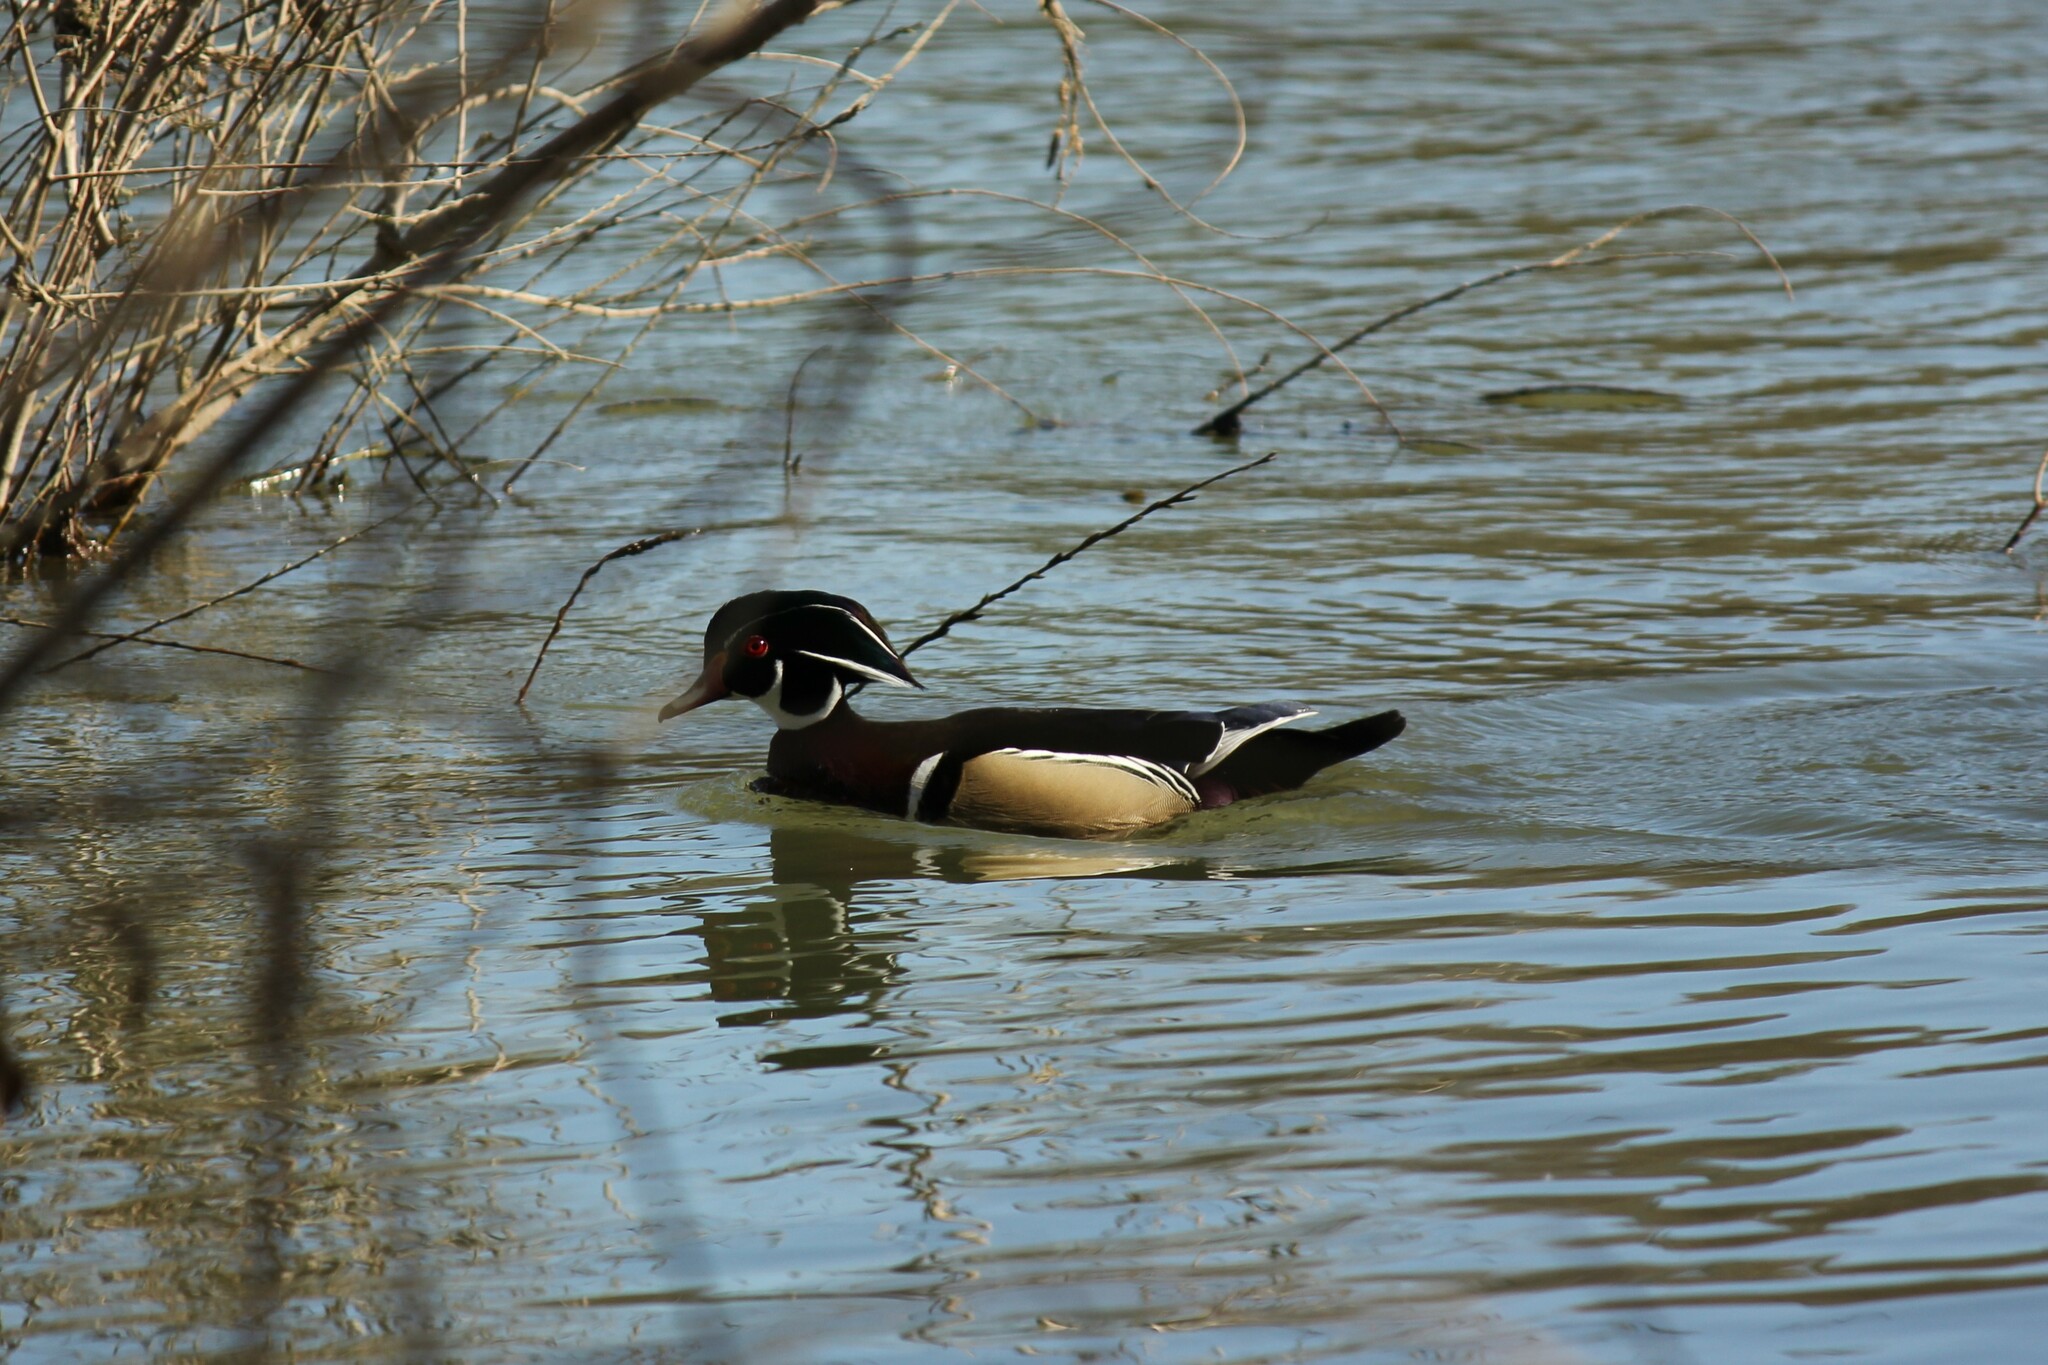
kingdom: Animalia
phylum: Chordata
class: Aves
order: Anseriformes
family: Anatidae
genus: Aix
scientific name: Aix sponsa
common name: Wood duck
